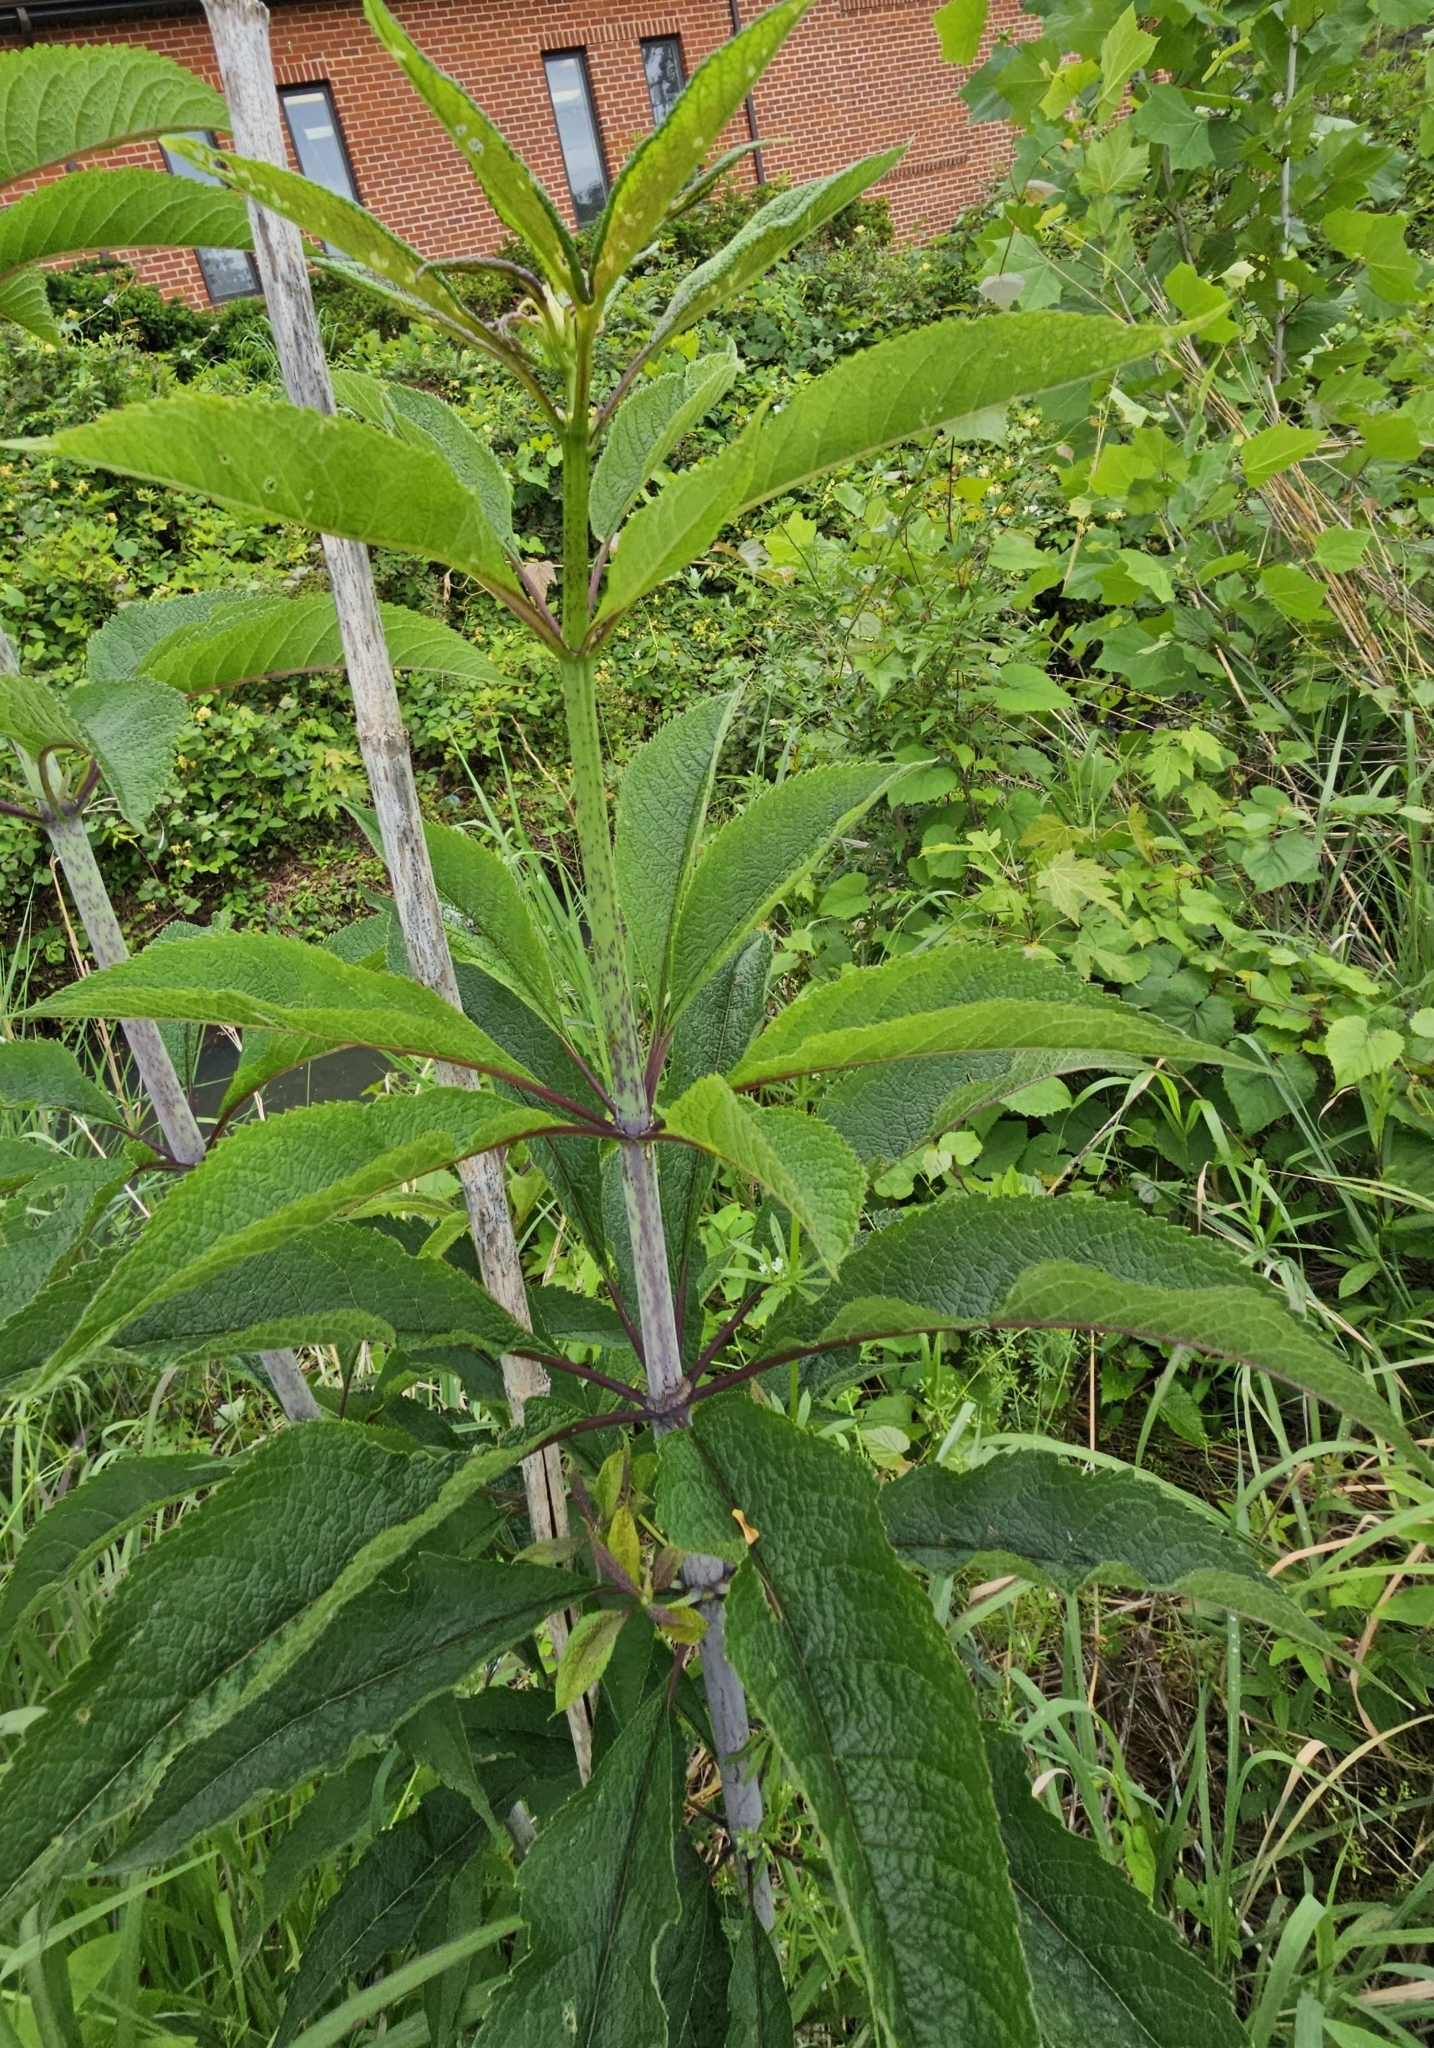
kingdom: Plantae
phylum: Tracheophyta
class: Magnoliopsida
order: Asterales
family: Asteraceae
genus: Eutrochium
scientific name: Eutrochium fistulosum
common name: Trumpetweed
